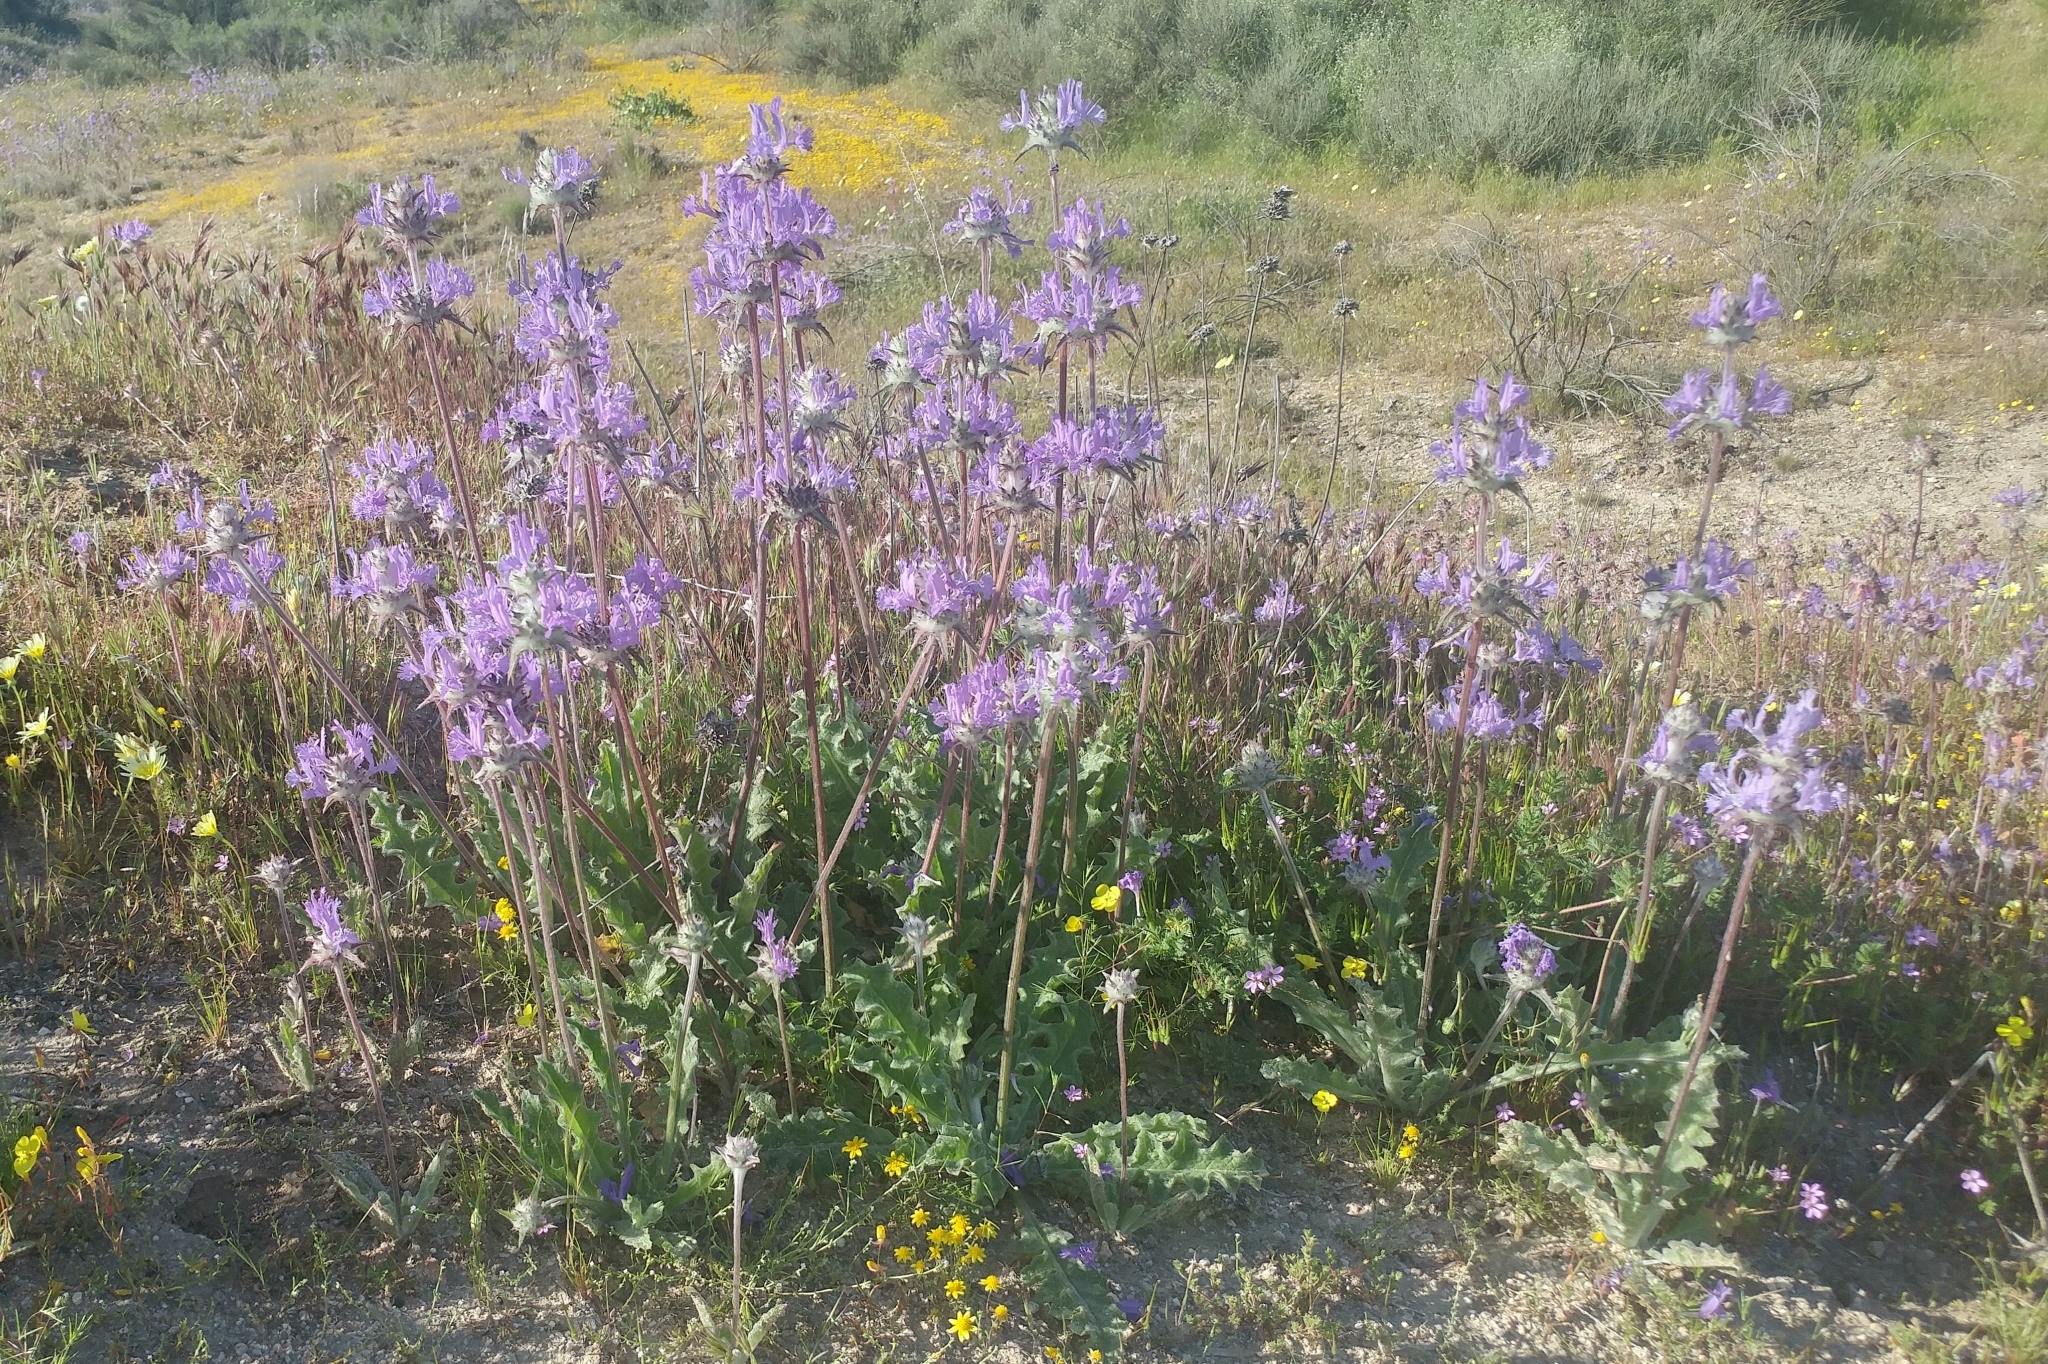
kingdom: Plantae
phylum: Tracheophyta
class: Magnoliopsida
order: Lamiales
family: Lamiaceae
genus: Salvia
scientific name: Salvia carduacea
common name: Thistle sage
